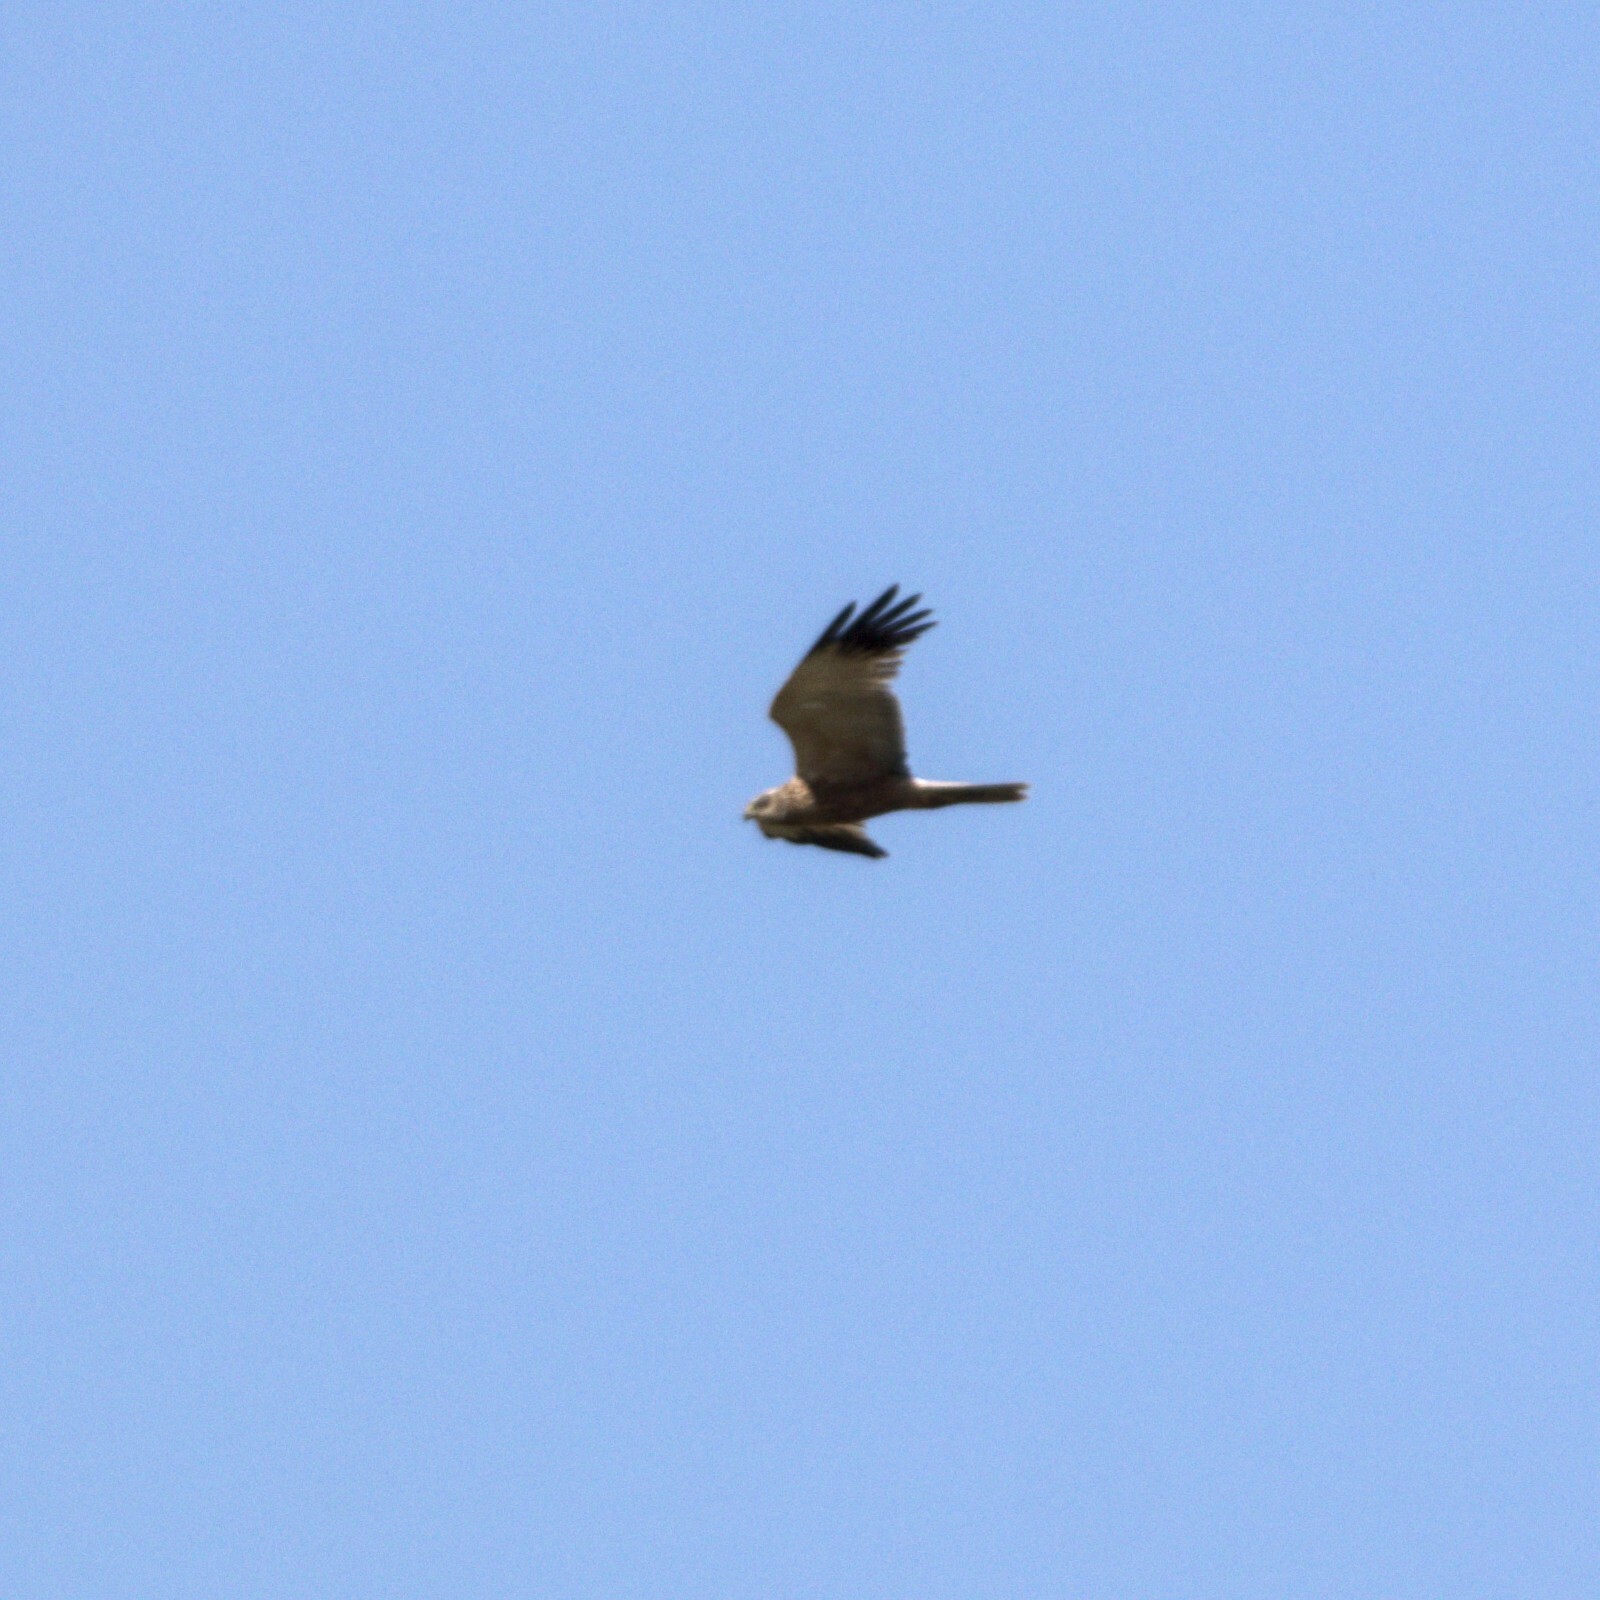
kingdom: Animalia
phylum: Chordata
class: Aves
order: Accipitriformes
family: Accipitridae
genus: Circus
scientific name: Circus aeruginosus
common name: Western marsh harrier
